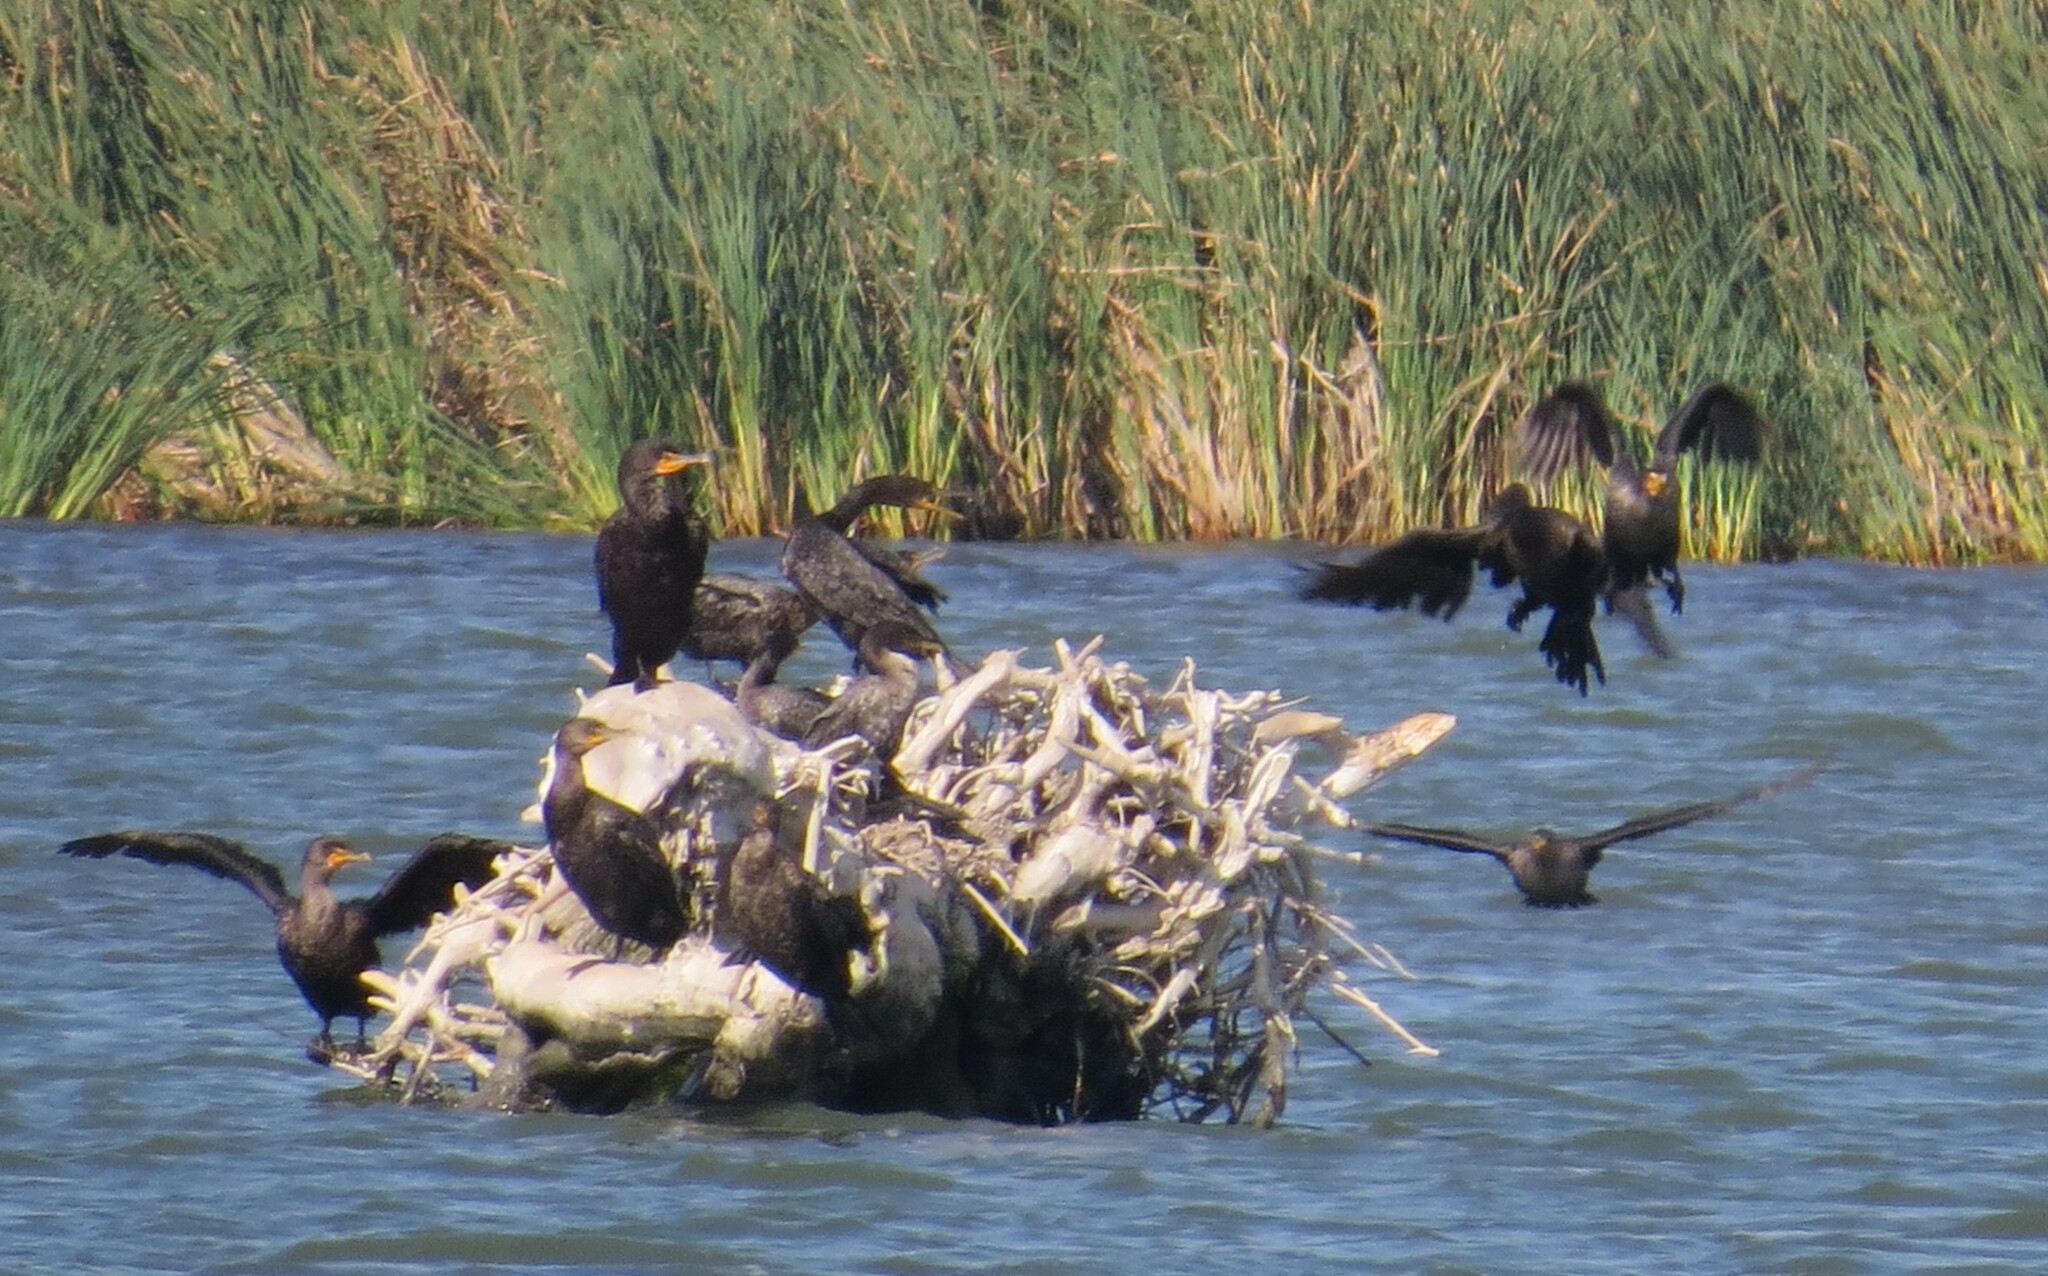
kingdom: Animalia
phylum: Chordata
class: Aves
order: Suliformes
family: Phalacrocoracidae
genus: Phalacrocorax
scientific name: Phalacrocorax auritus
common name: Double-crested cormorant
